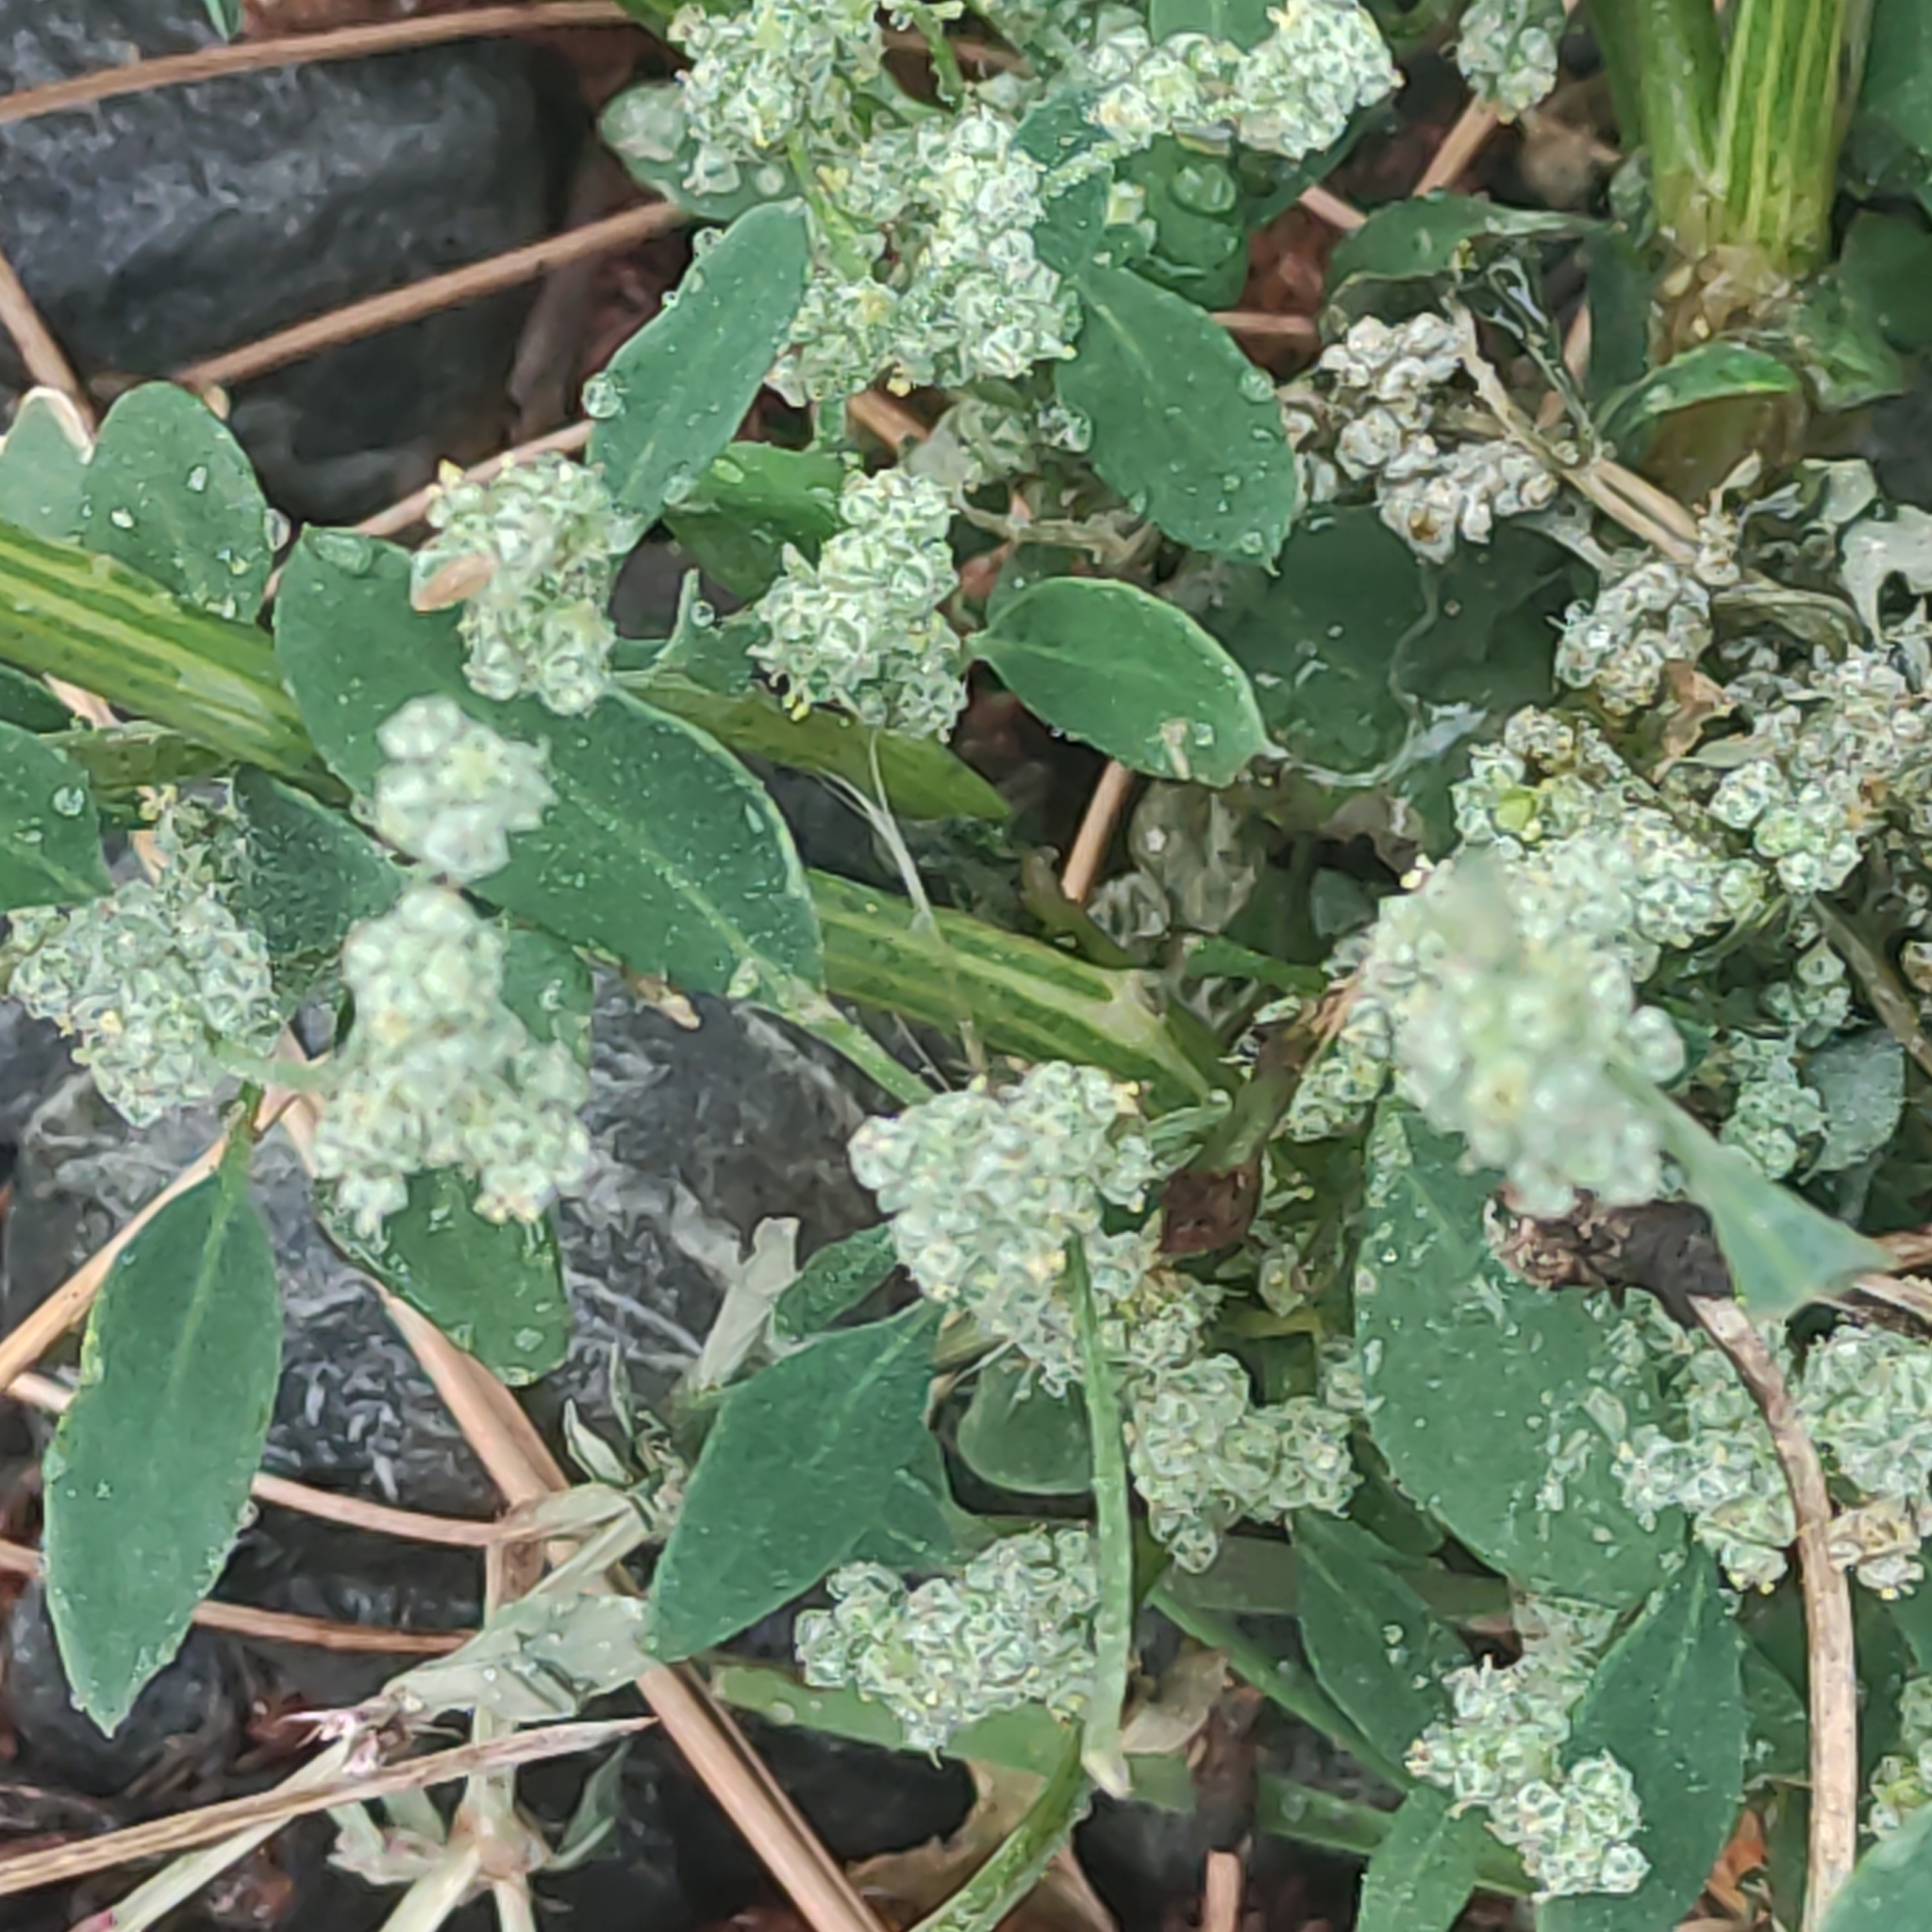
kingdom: Plantae
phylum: Tracheophyta
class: Magnoliopsida
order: Caryophyllales
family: Amaranthaceae
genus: Chenopodium
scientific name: Chenopodium album
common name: Fat-hen
